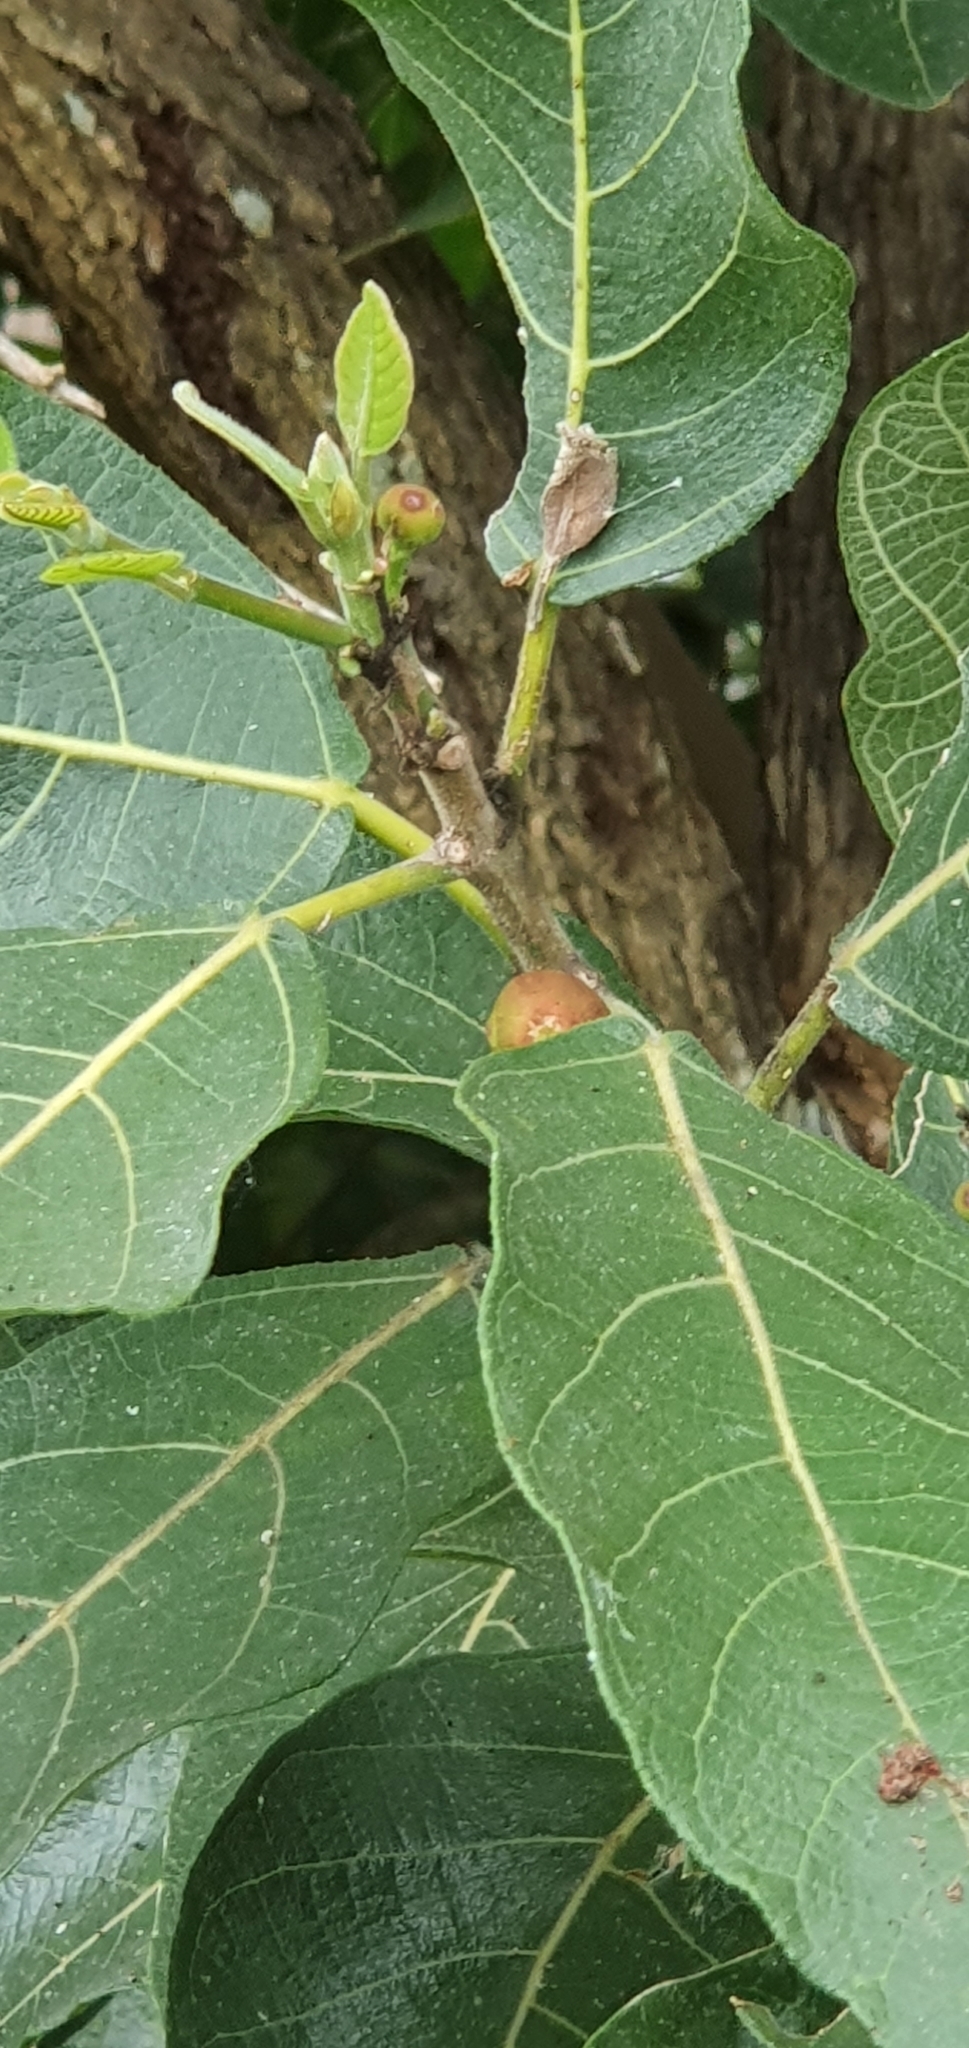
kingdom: Plantae
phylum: Tracheophyta
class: Magnoliopsida
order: Rosales
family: Moraceae
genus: Ficus
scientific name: Ficus opposita
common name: Figwood
